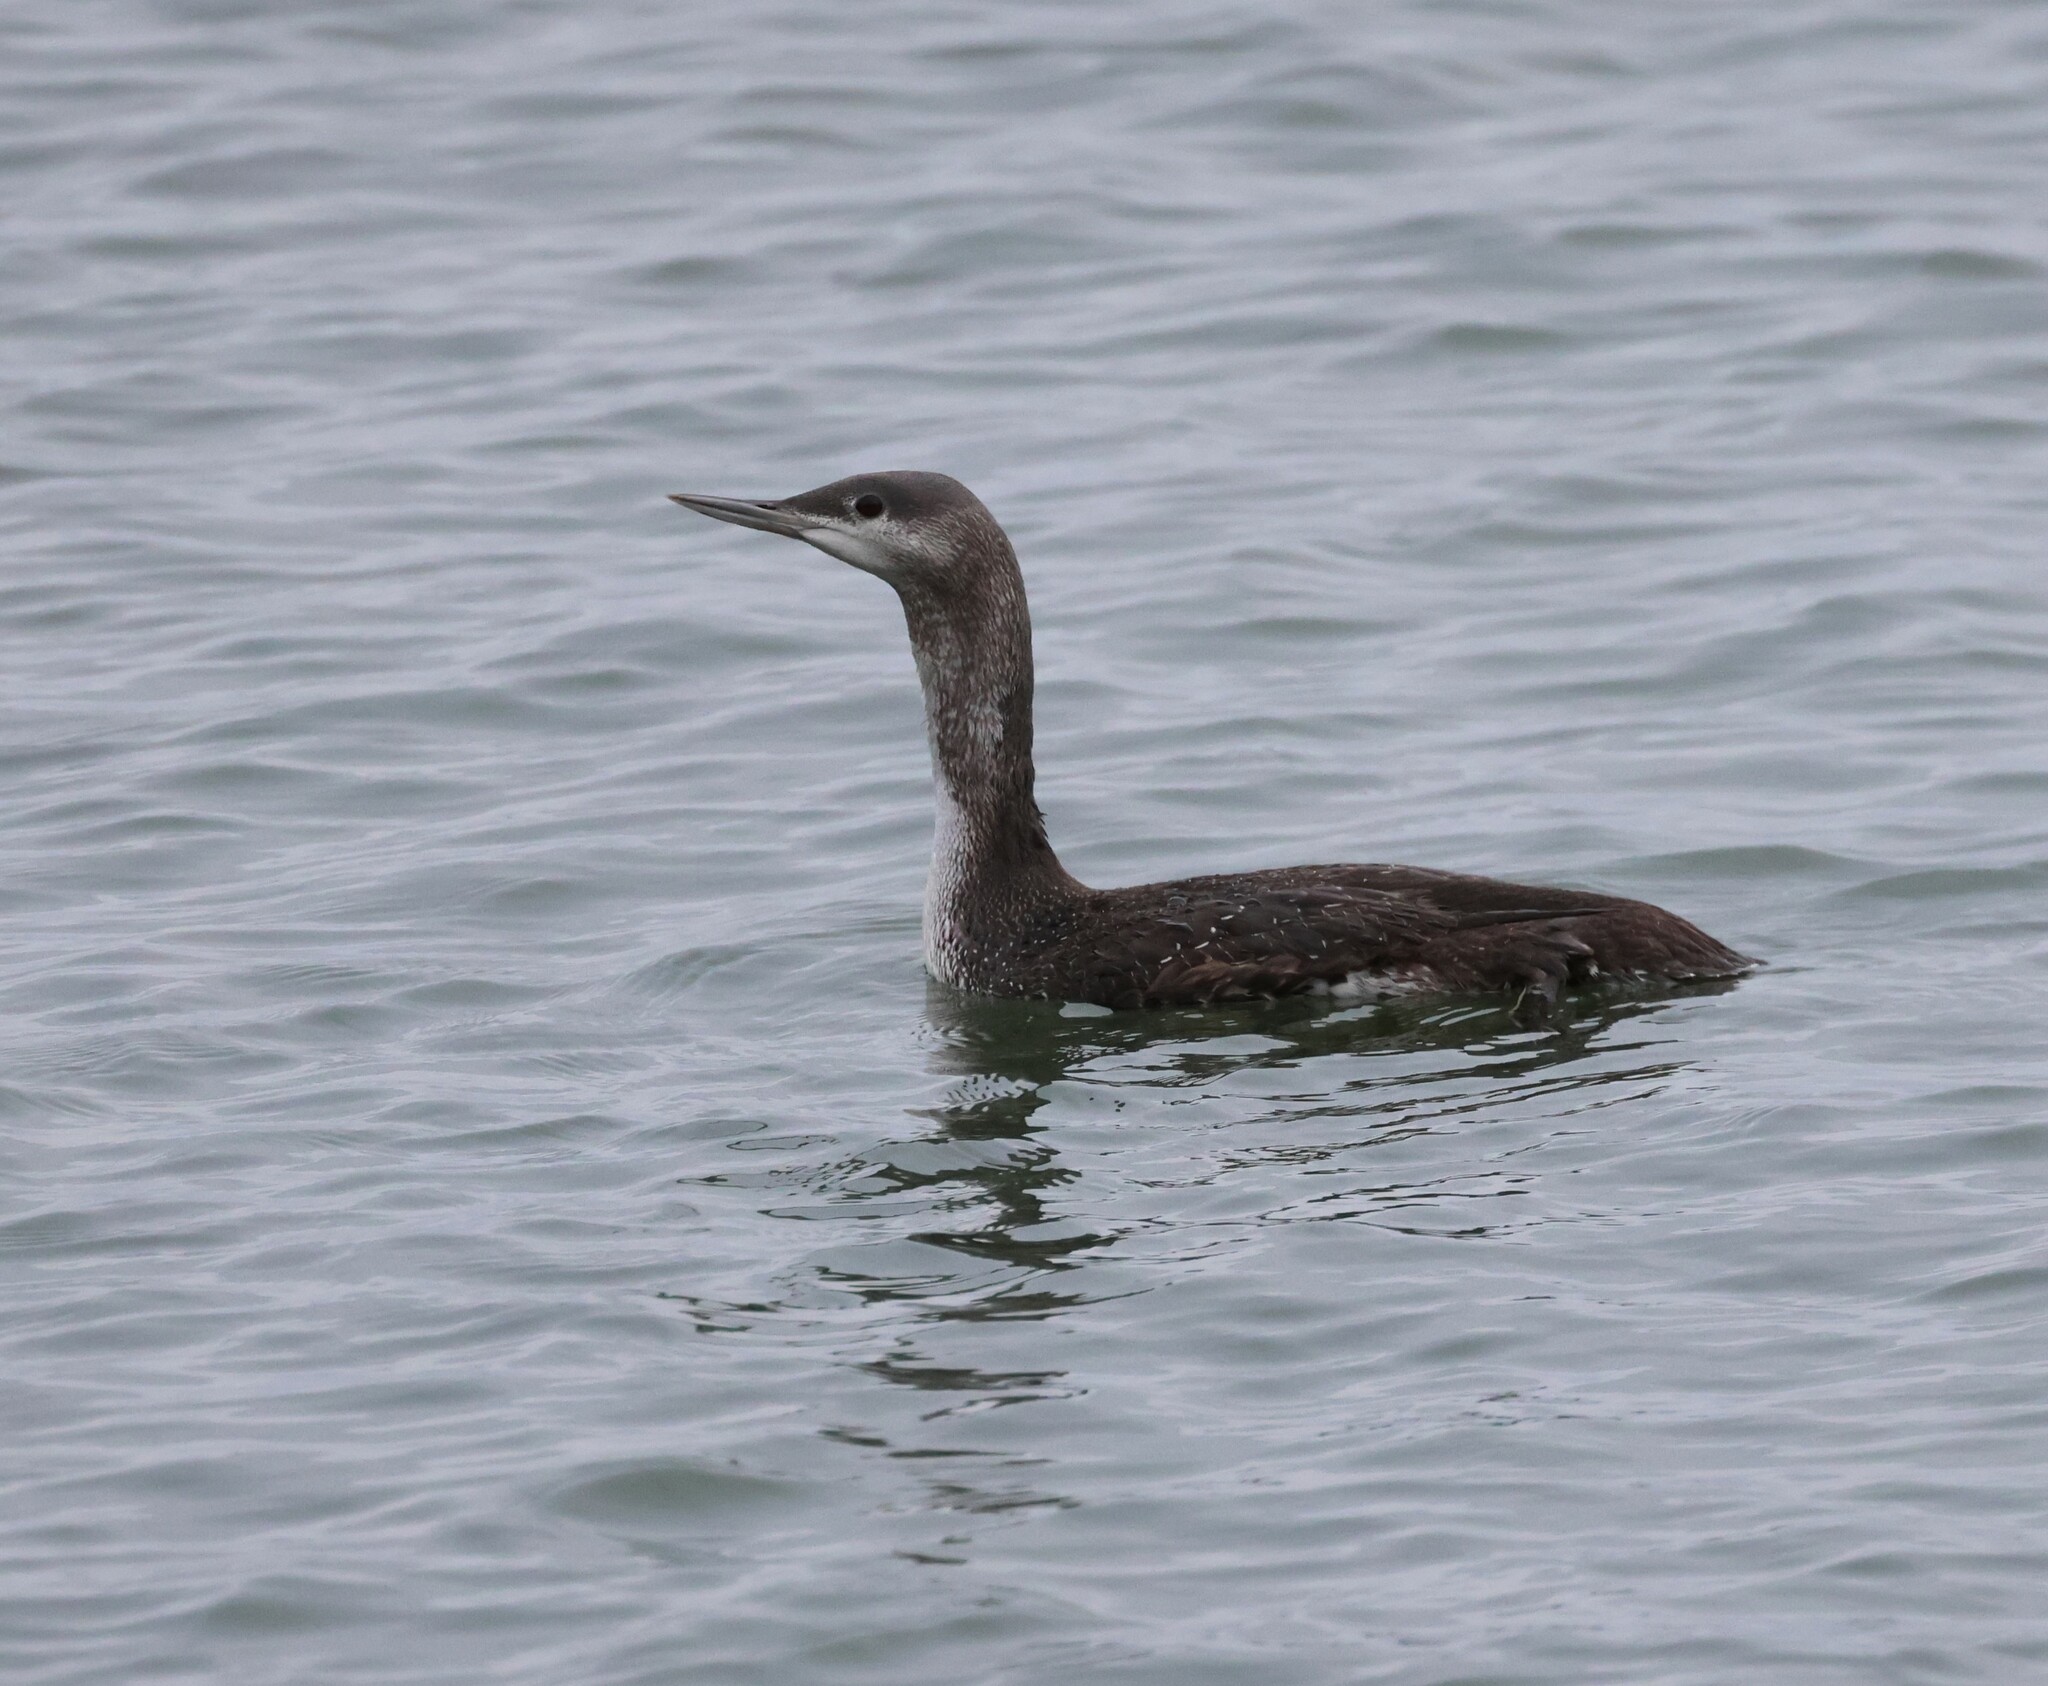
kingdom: Animalia
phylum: Chordata
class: Aves
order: Gaviiformes
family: Gaviidae
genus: Gavia
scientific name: Gavia stellata
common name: Red-throated loon
